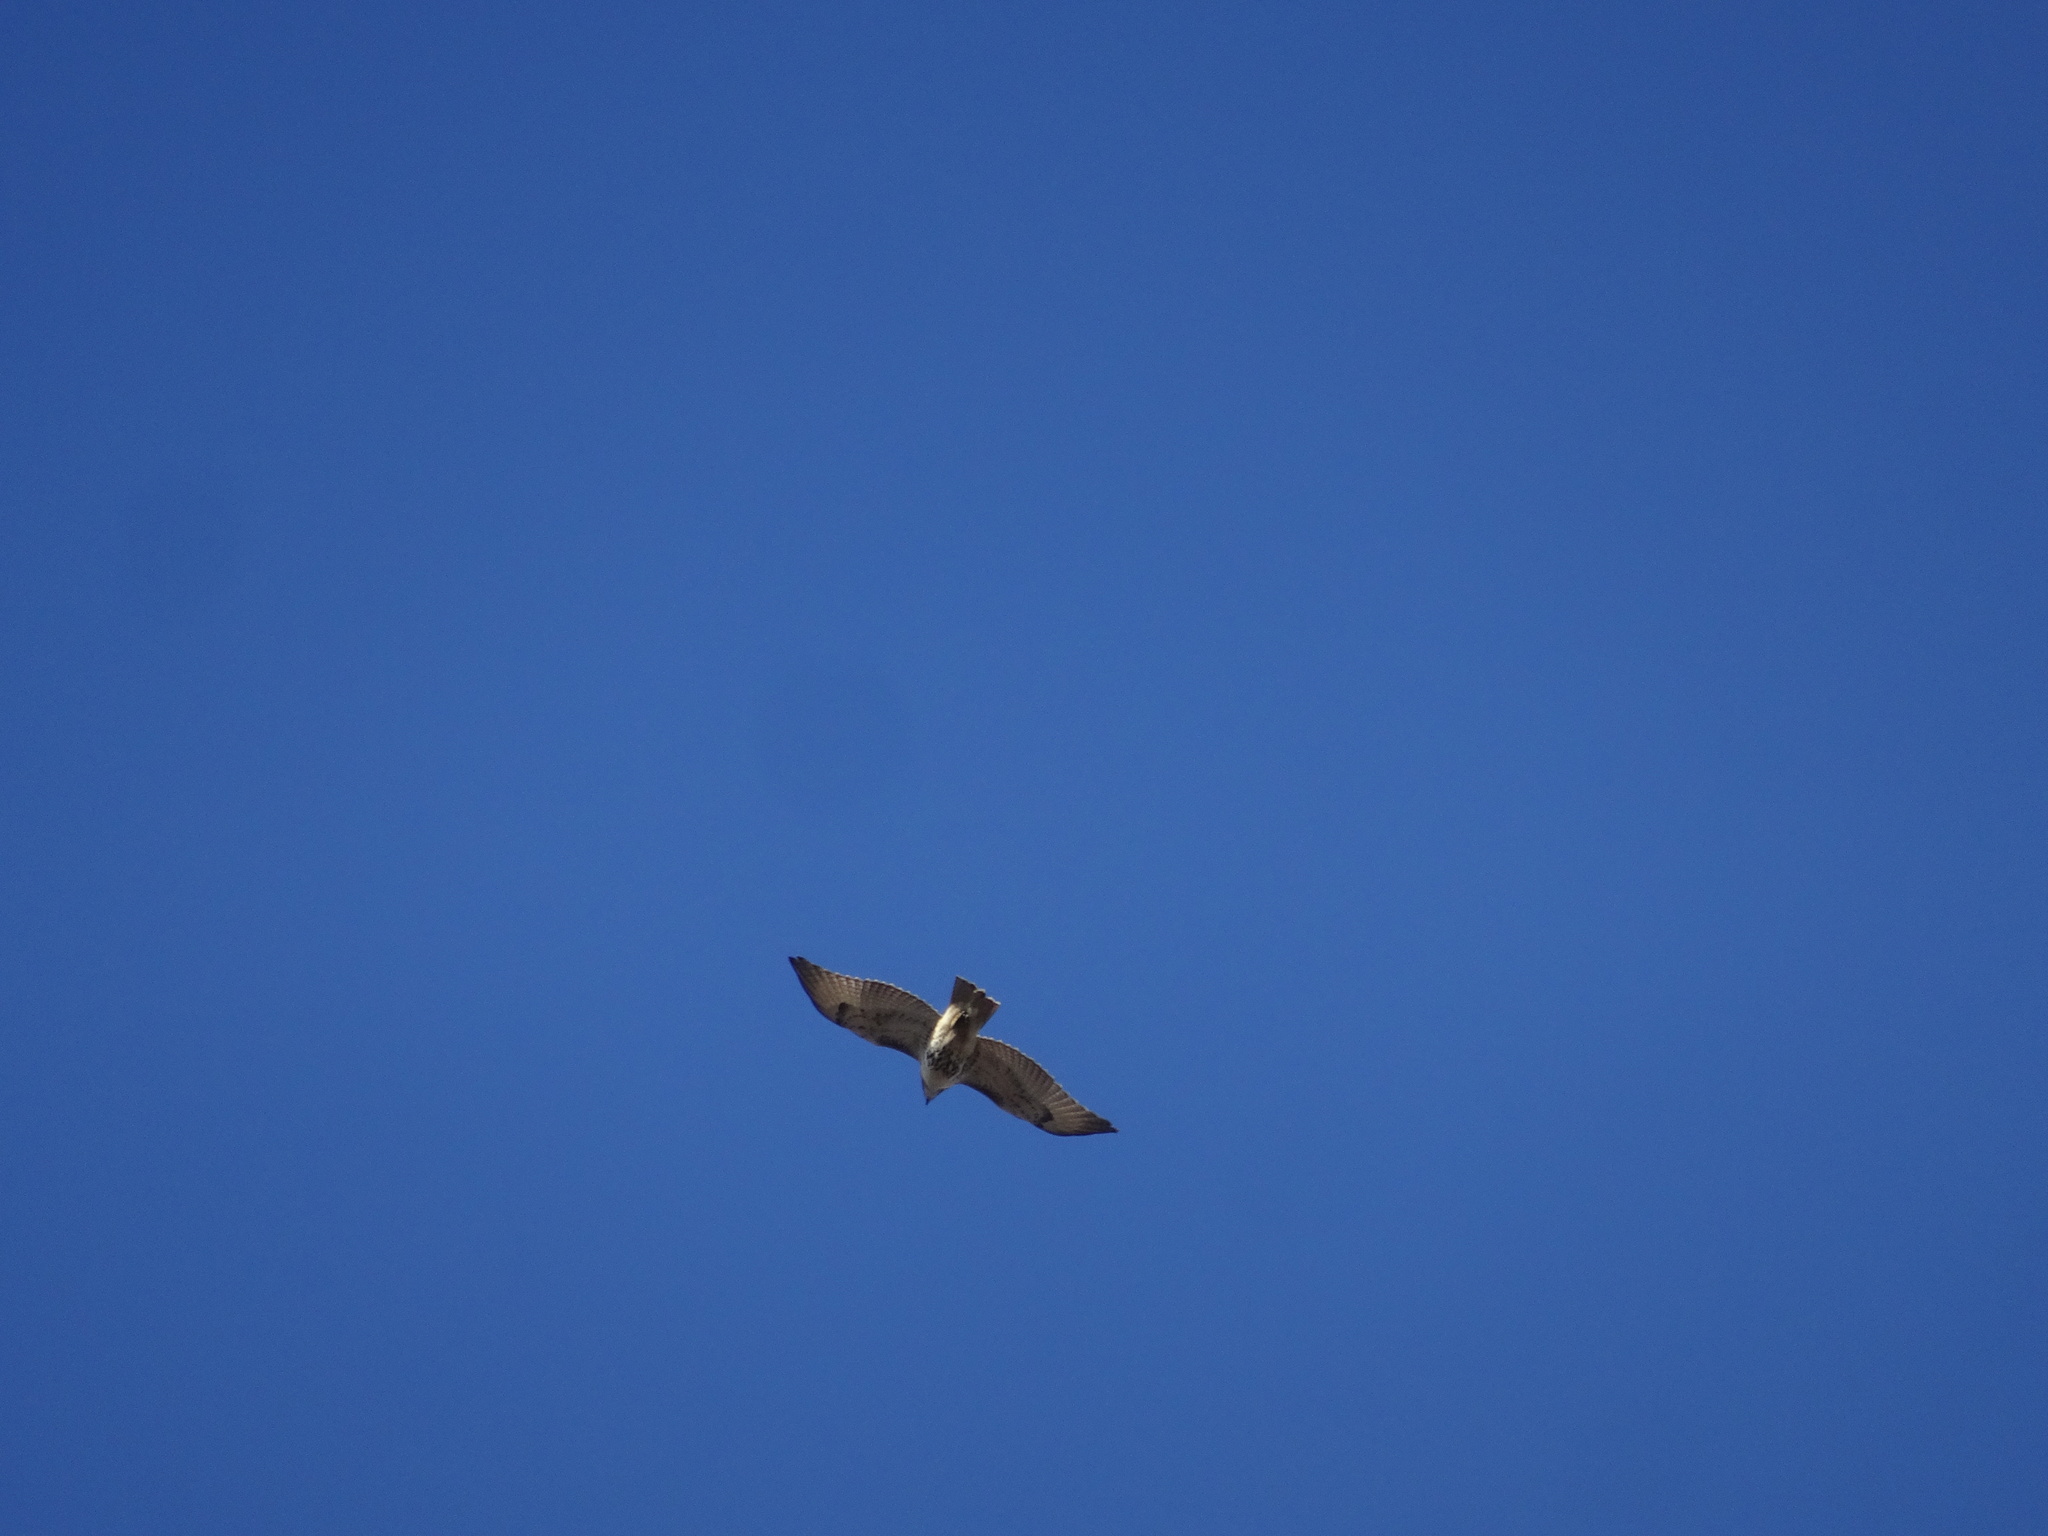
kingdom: Animalia
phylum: Chordata
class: Aves
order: Accipitriformes
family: Accipitridae
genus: Buteo
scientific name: Buteo jamaicensis
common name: Red-tailed hawk
